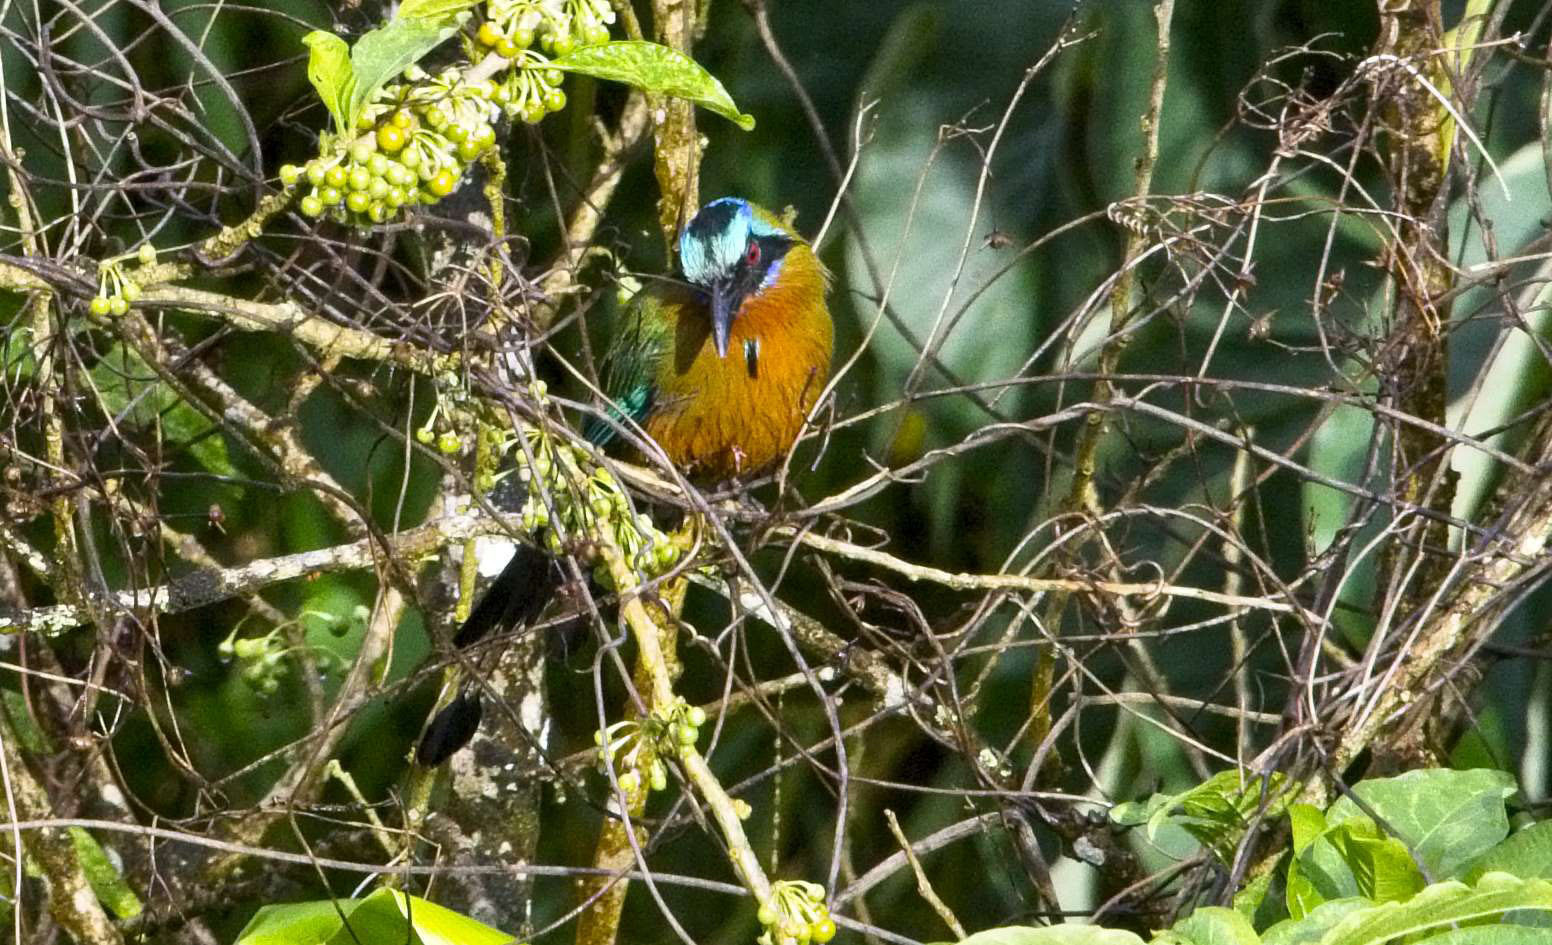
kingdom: Animalia
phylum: Chordata
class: Aves
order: Coraciiformes
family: Momotidae
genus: Momotus
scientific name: Momotus bahamensis
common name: Trinidad motmot
